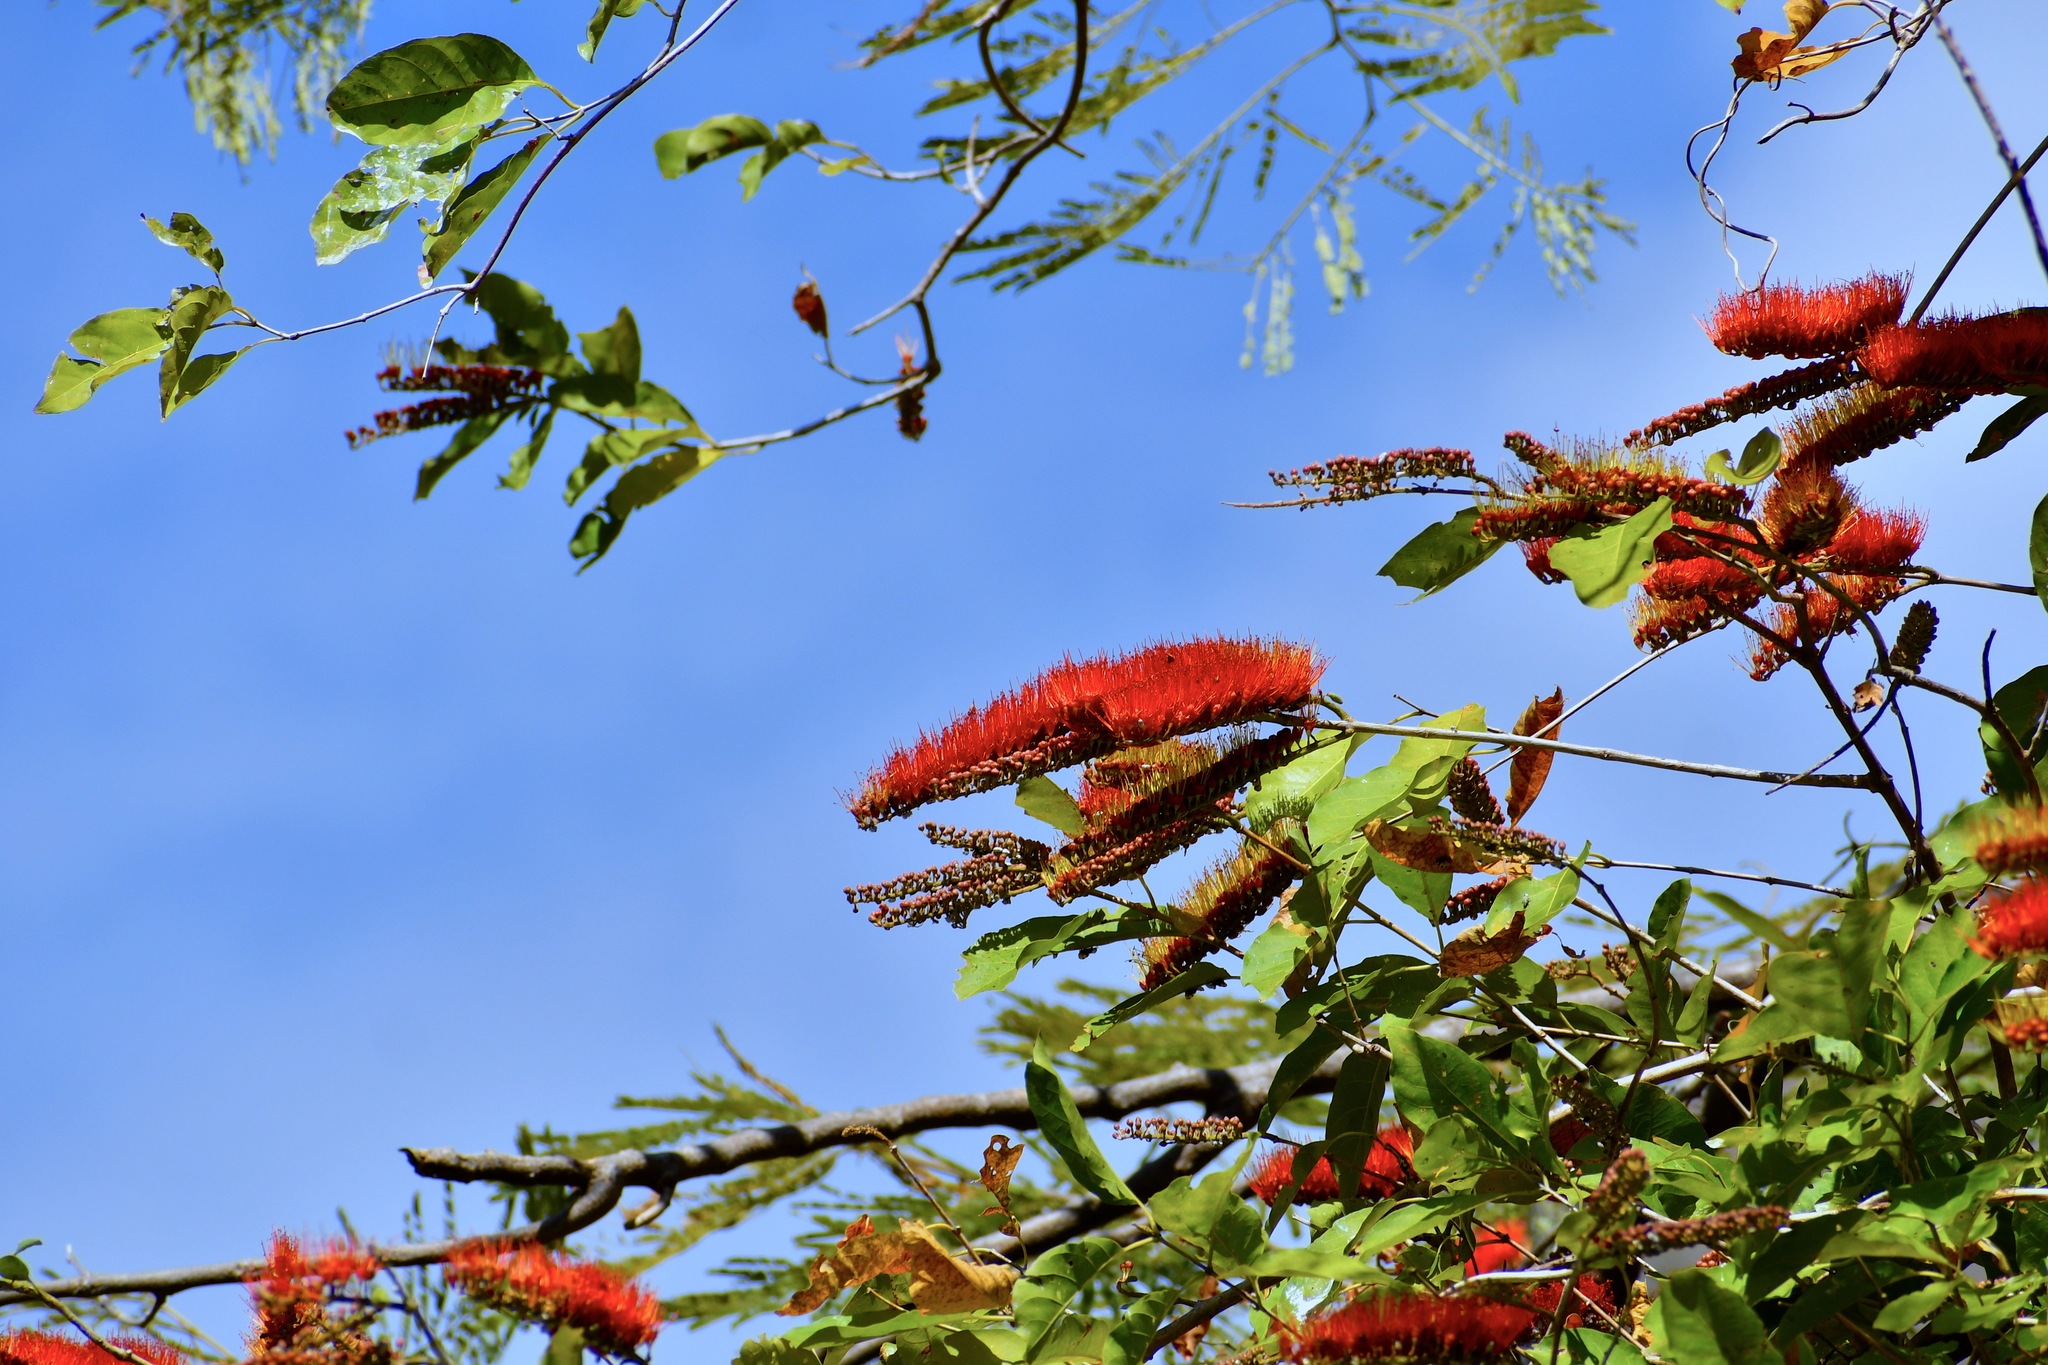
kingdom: Plantae
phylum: Tracheophyta
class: Magnoliopsida
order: Myrtales
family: Combretaceae
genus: Combretum
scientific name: Combretum fruticosum
